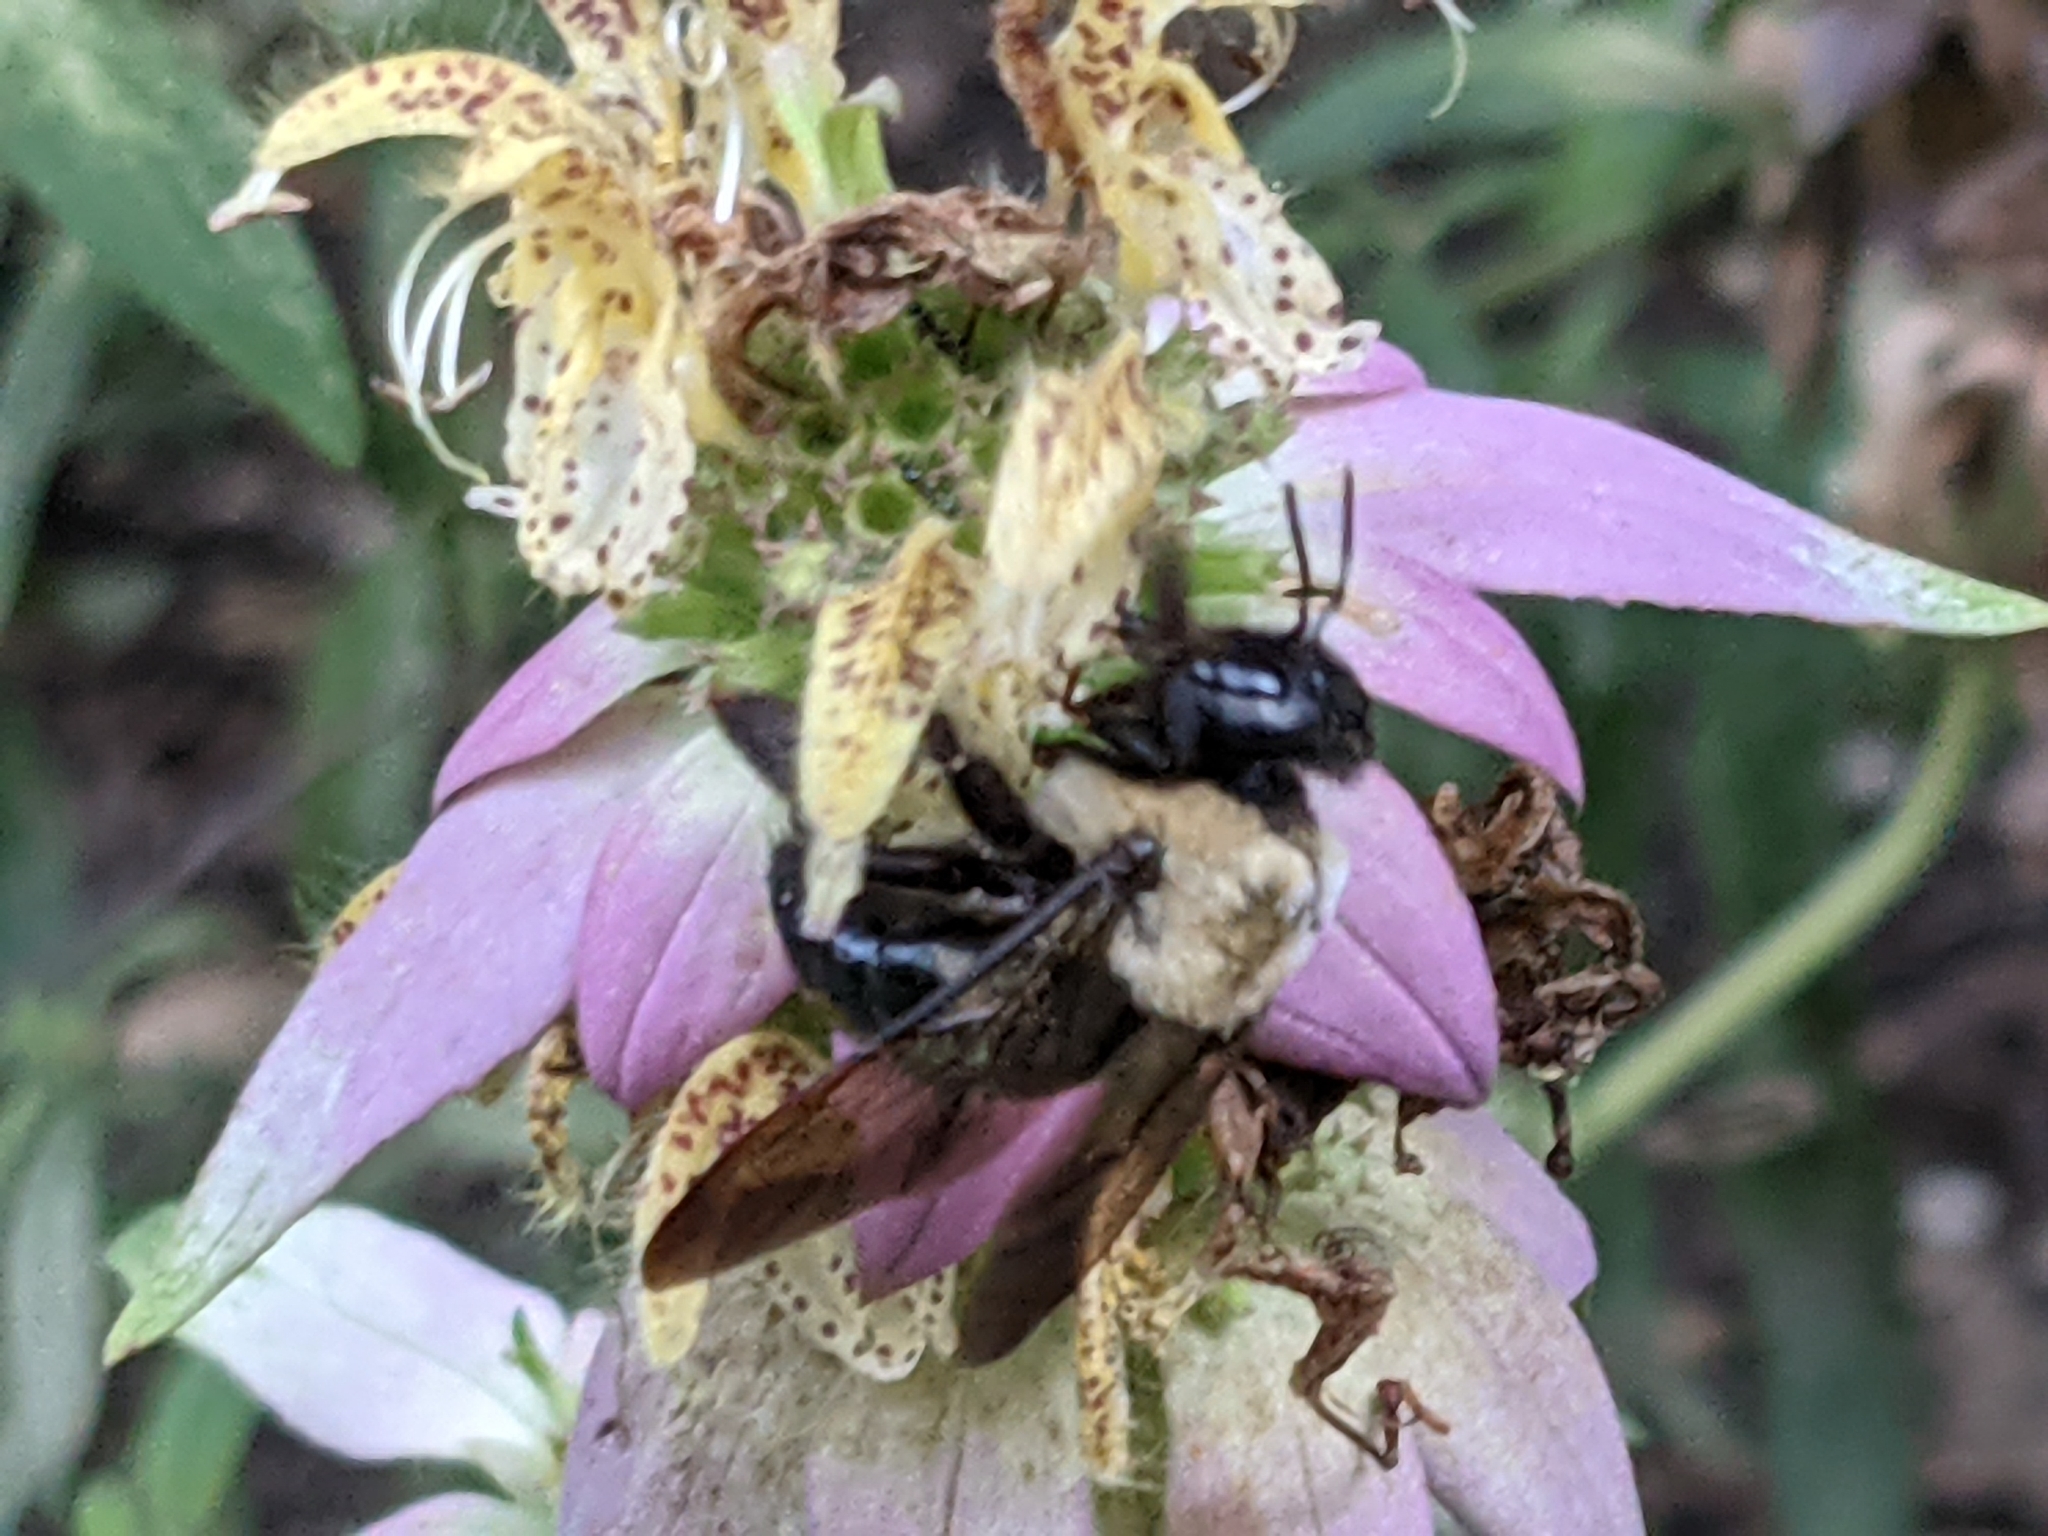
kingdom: Animalia
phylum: Arthropoda
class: Insecta
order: Hymenoptera
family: Apidae
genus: Xylocopa
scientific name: Xylocopa virginica
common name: Carpenter bee
